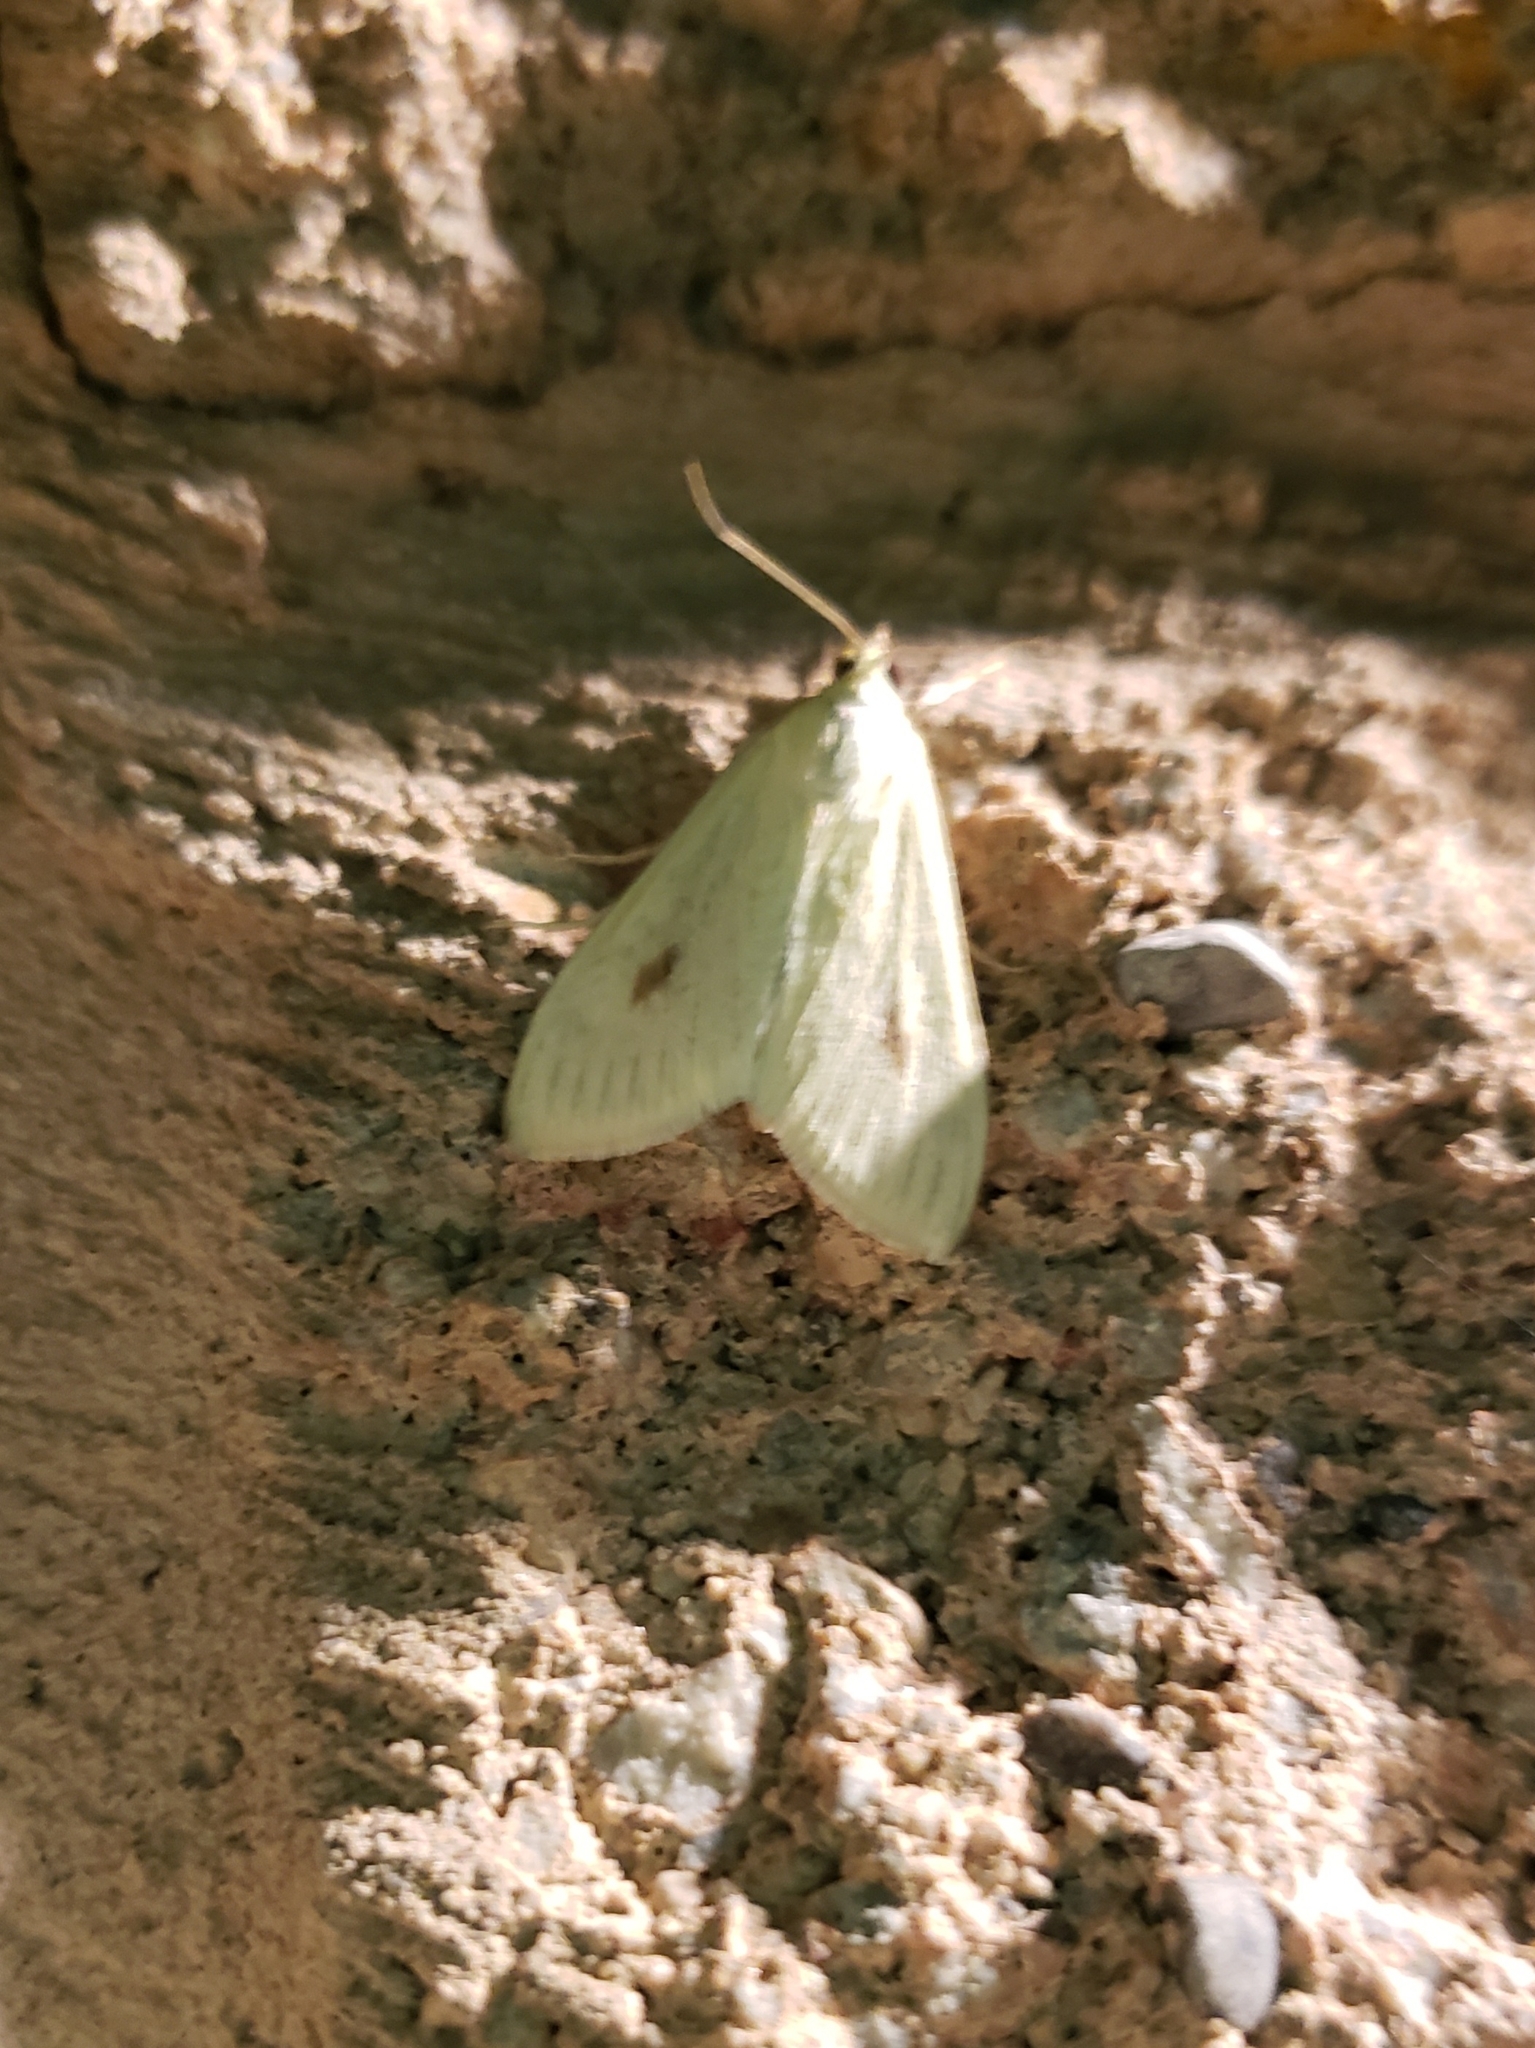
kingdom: Animalia
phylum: Arthropoda
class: Insecta
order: Lepidoptera
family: Crambidae
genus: Sitochroa
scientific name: Sitochroa palealis
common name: Greenish-yellow sitochroa moth
